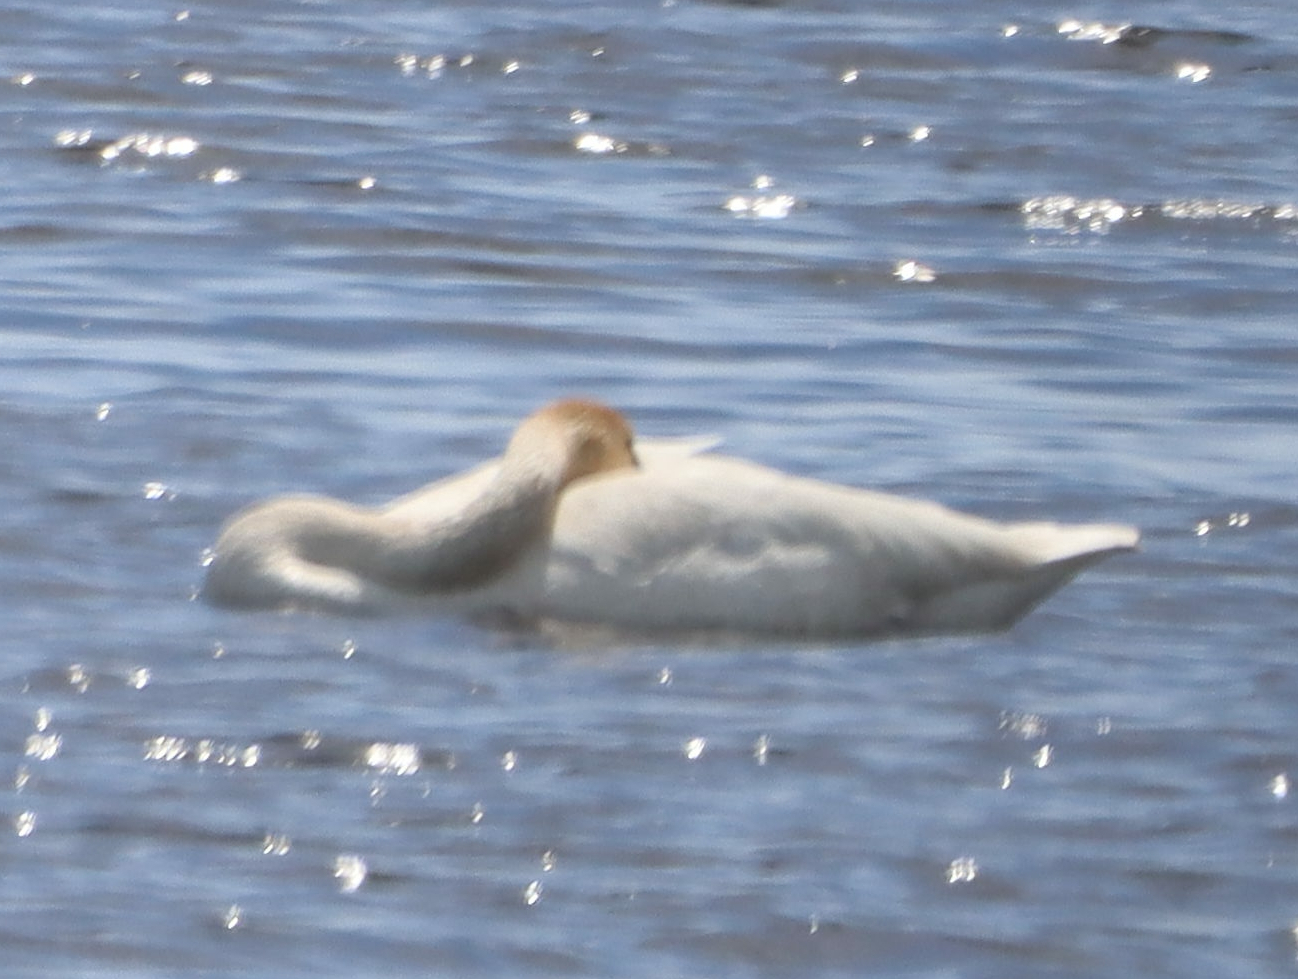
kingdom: Animalia
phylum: Chordata
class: Aves
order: Anseriformes
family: Anatidae
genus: Cygnus
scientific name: Cygnus buccinator
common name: Trumpeter swan
